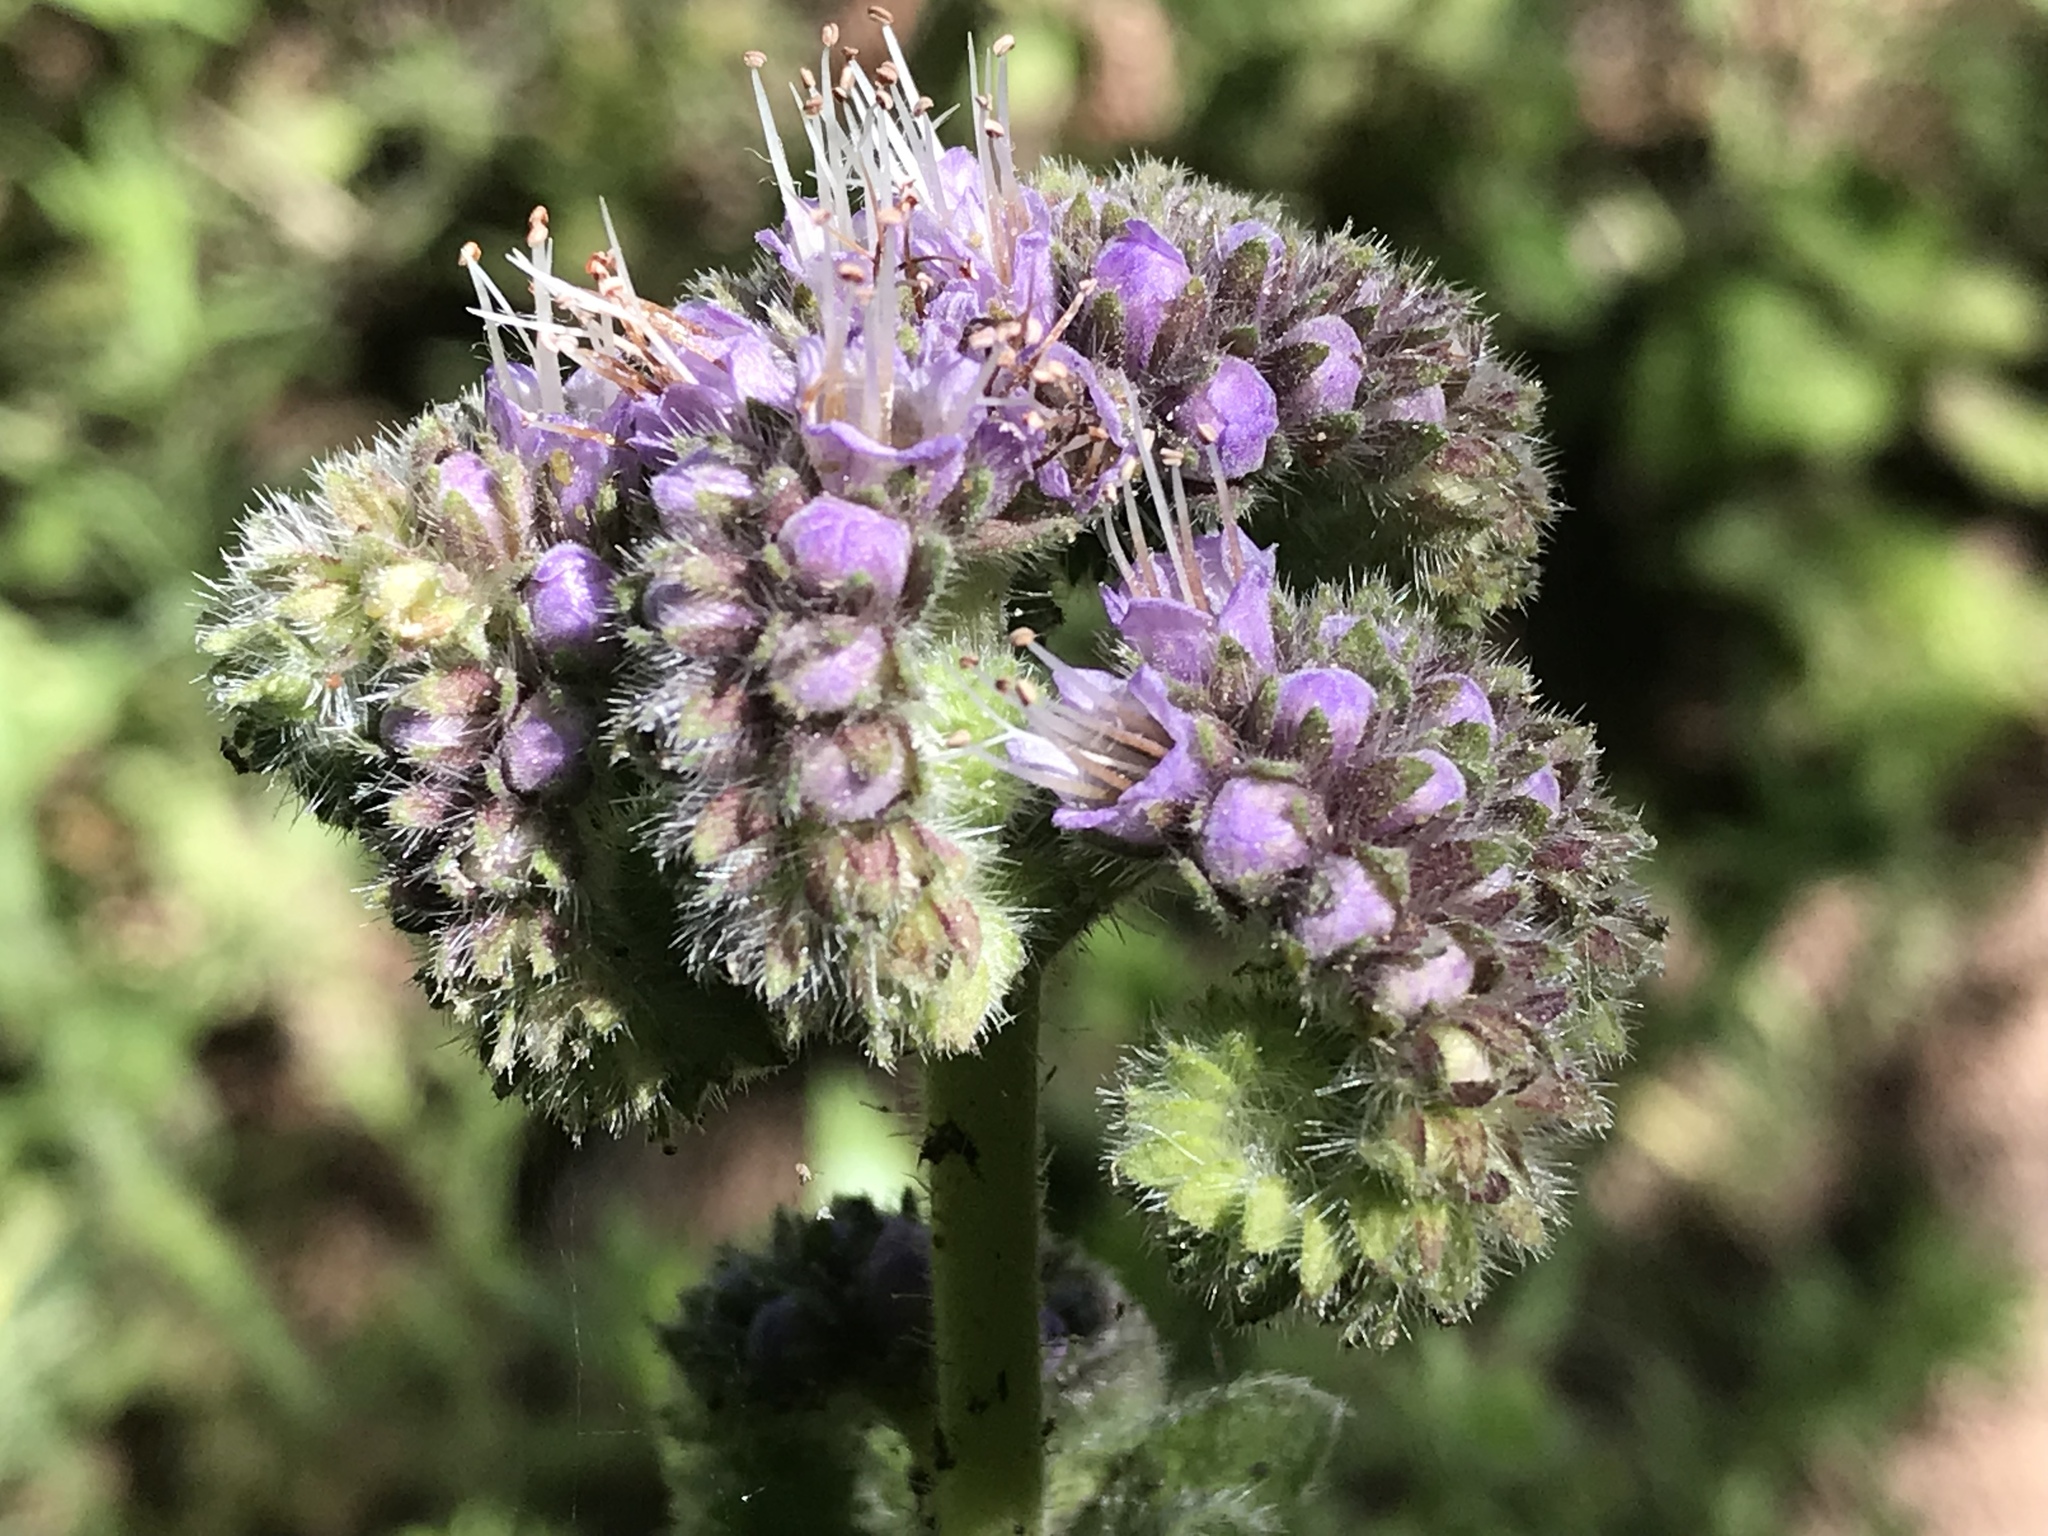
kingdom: Plantae
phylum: Tracheophyta
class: Magnoliopsida
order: Boraginales
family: Hydrophyllaceae
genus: Phacelia
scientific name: Phacelia californica
